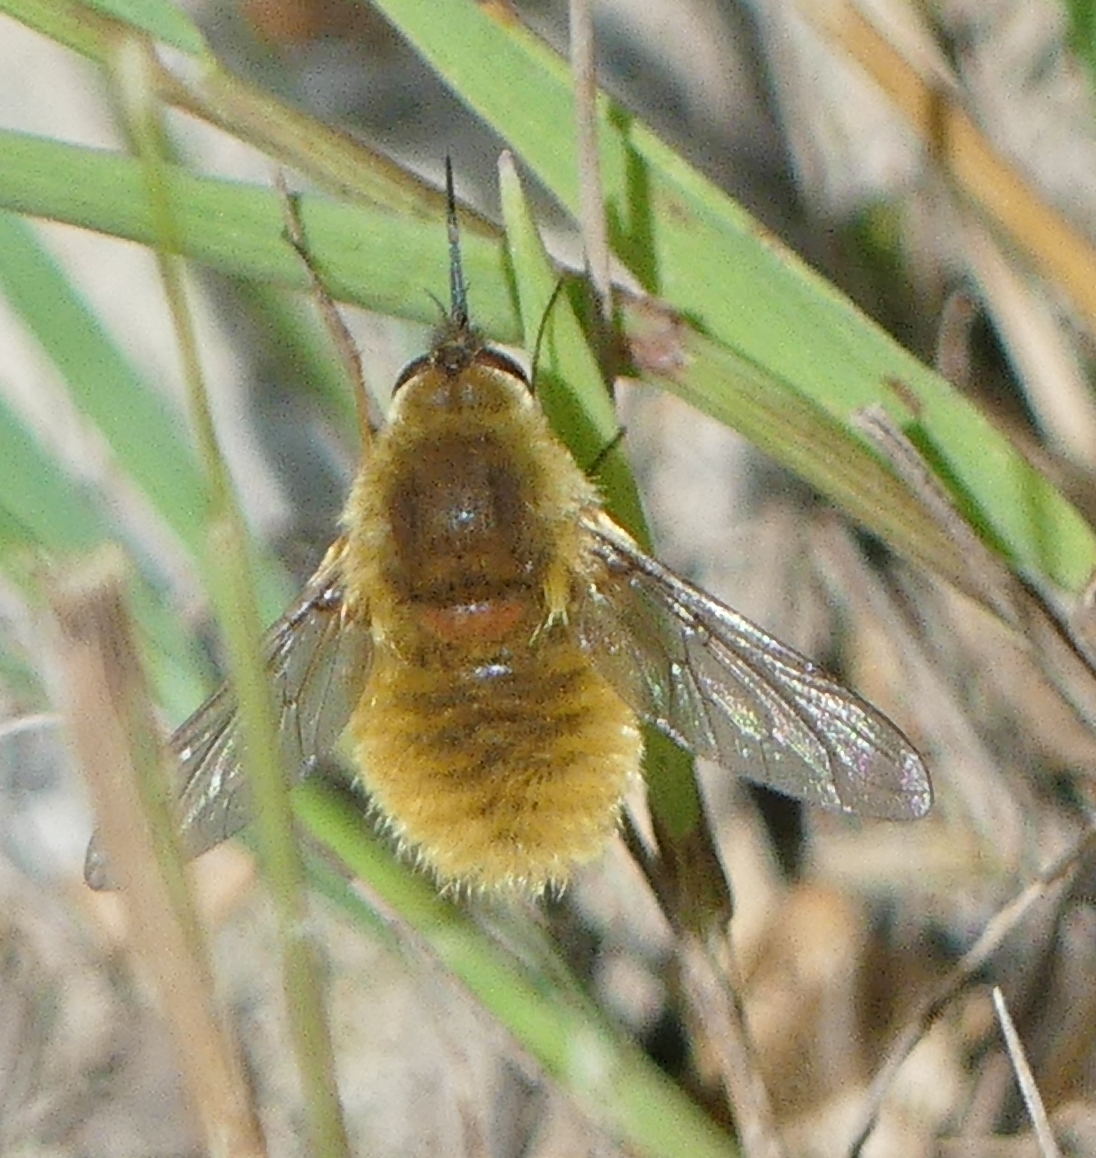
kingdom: Animalia
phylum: Arthropoda
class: Insecta
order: Diptera
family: Bombyliidae
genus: Systoechus
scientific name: Systoechus vulgaris
